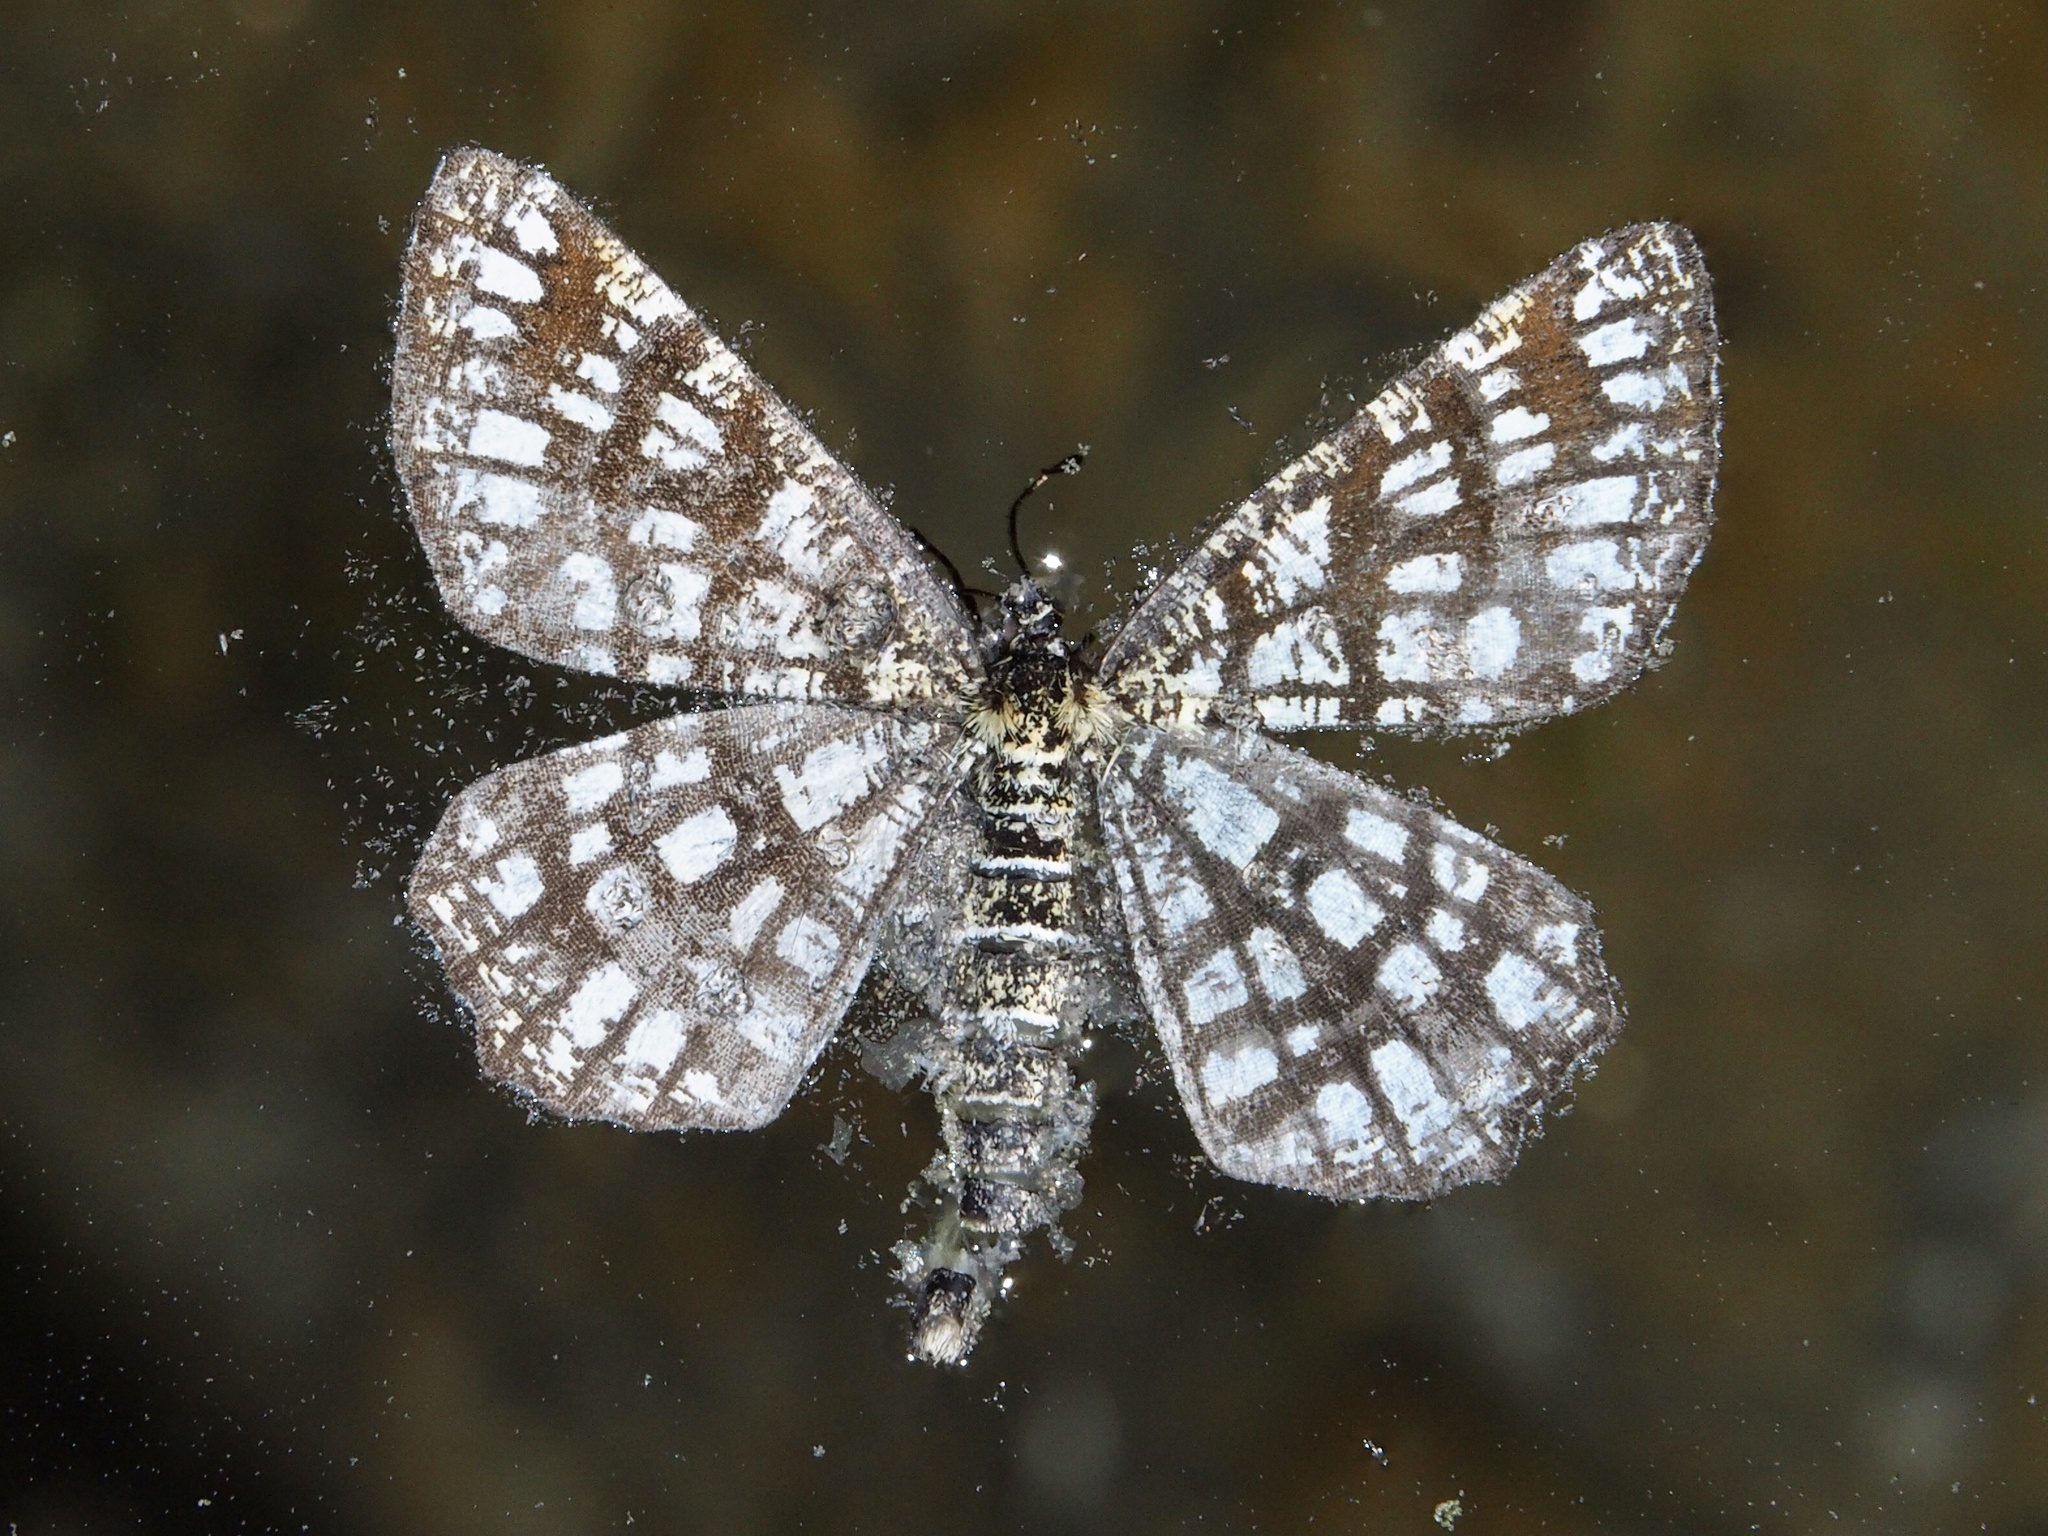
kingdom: Animalia
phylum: Arthropoda
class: Insecta
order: Lepidoptera
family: Geometridae
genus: Chiasmia
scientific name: Chiasmia clathrata
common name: Latticed heath
